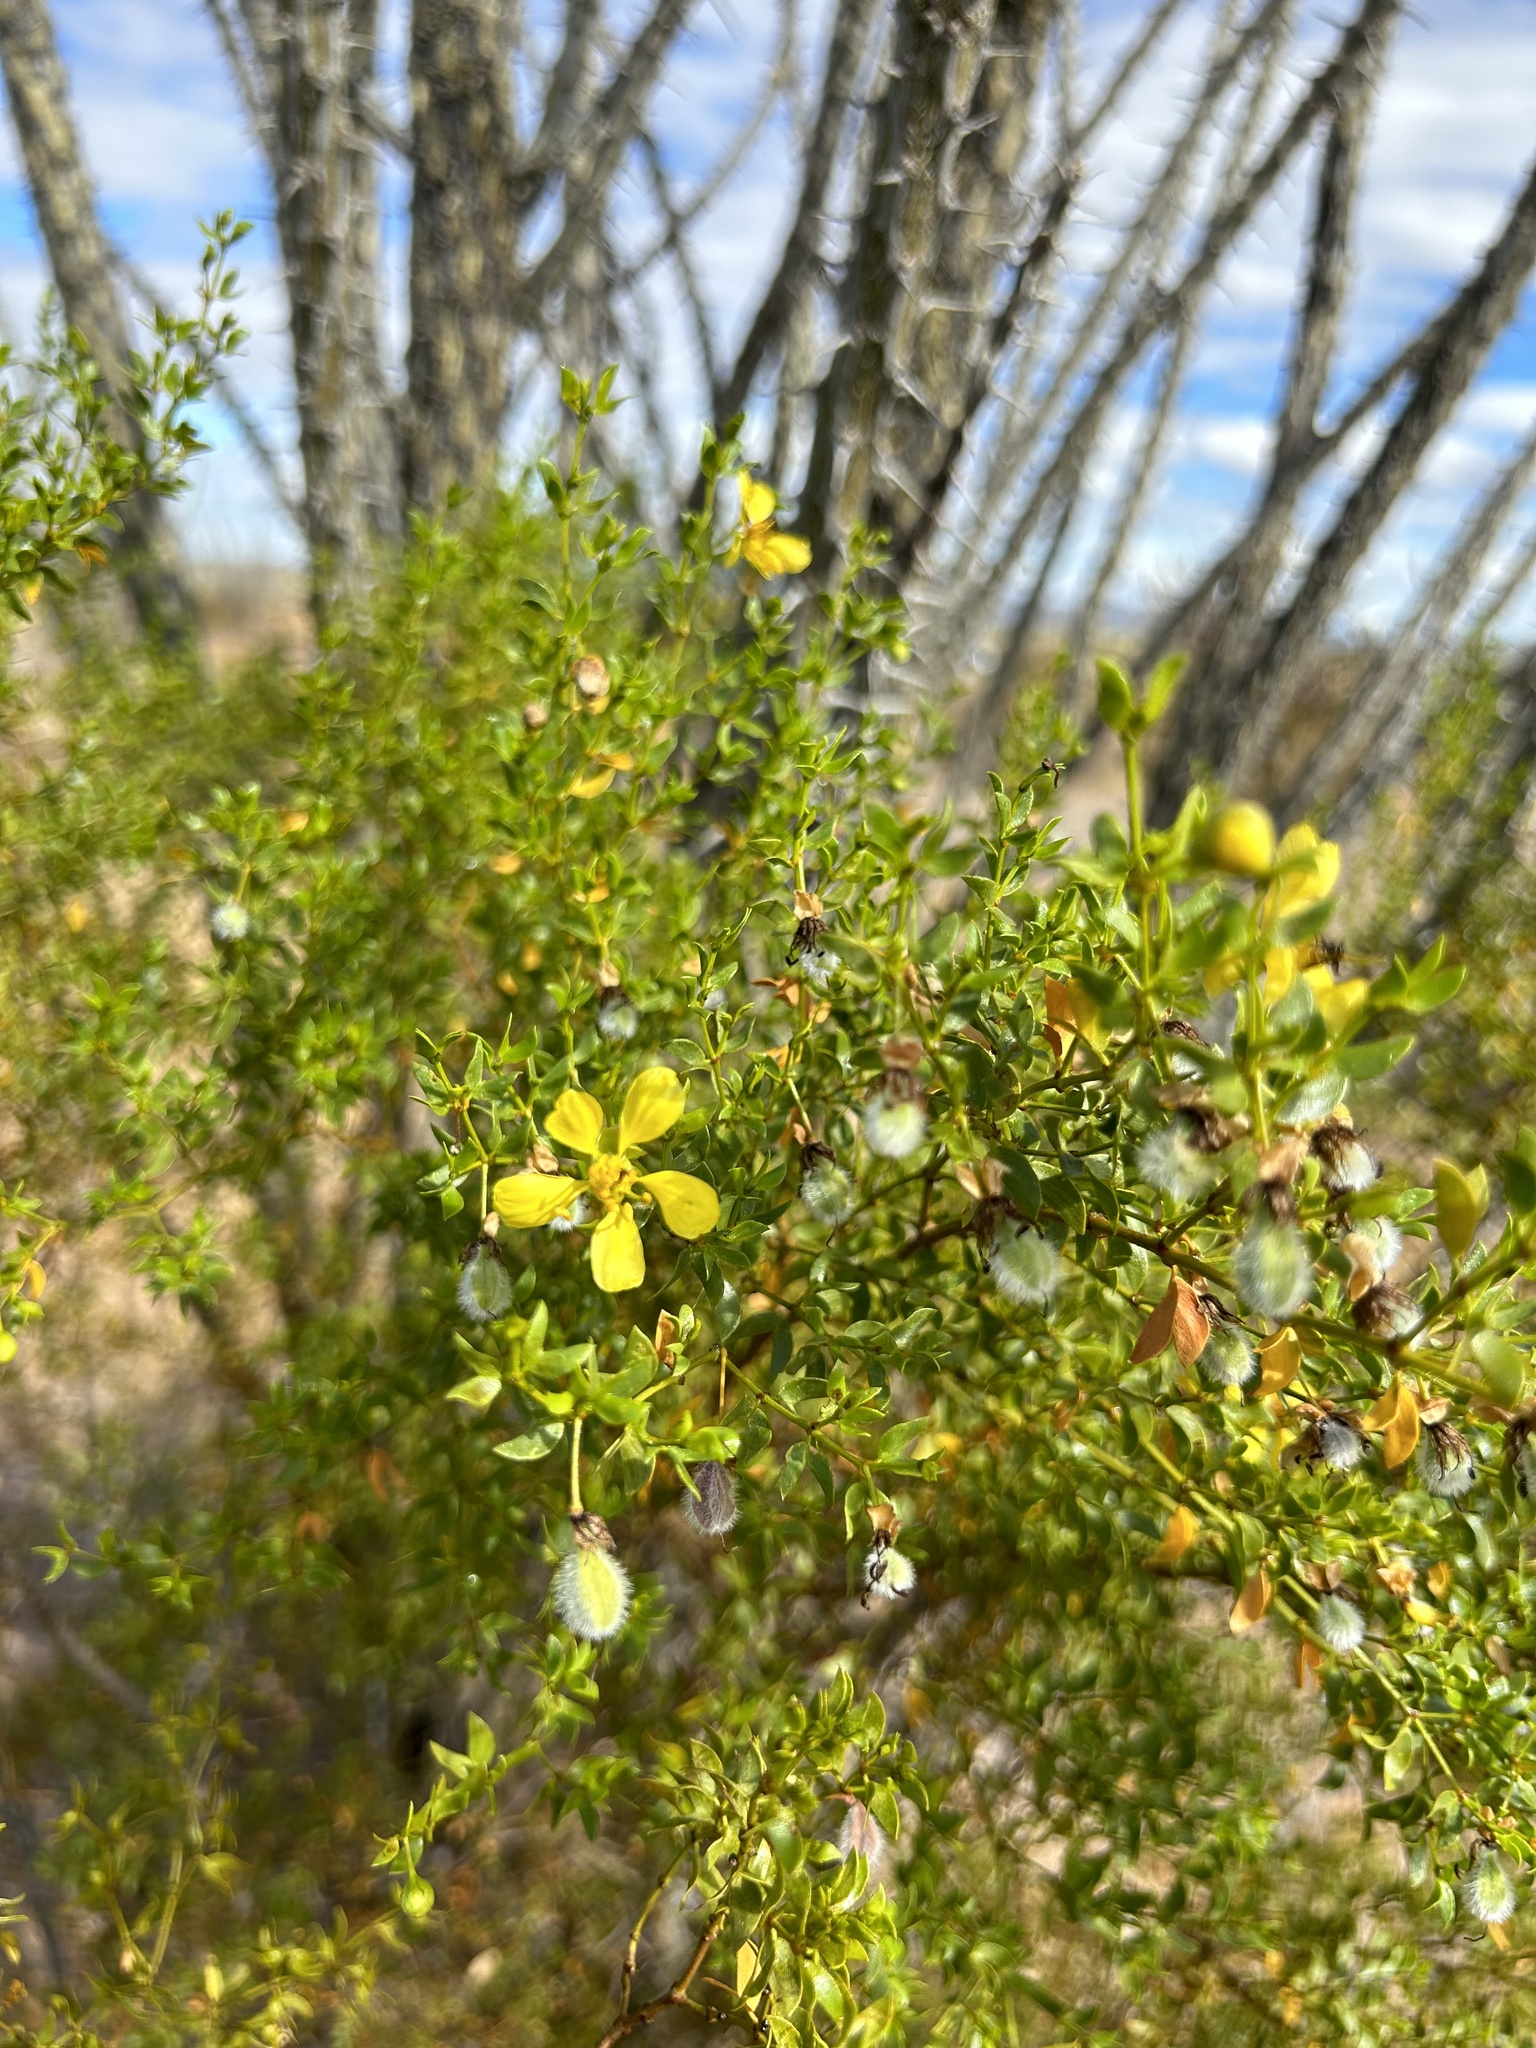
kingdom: Plantae
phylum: Tracheophyta
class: Magnoliopsida
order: Zygophyllales
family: Zygophyllaceae
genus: Larrea
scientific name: Larrea tridentata
